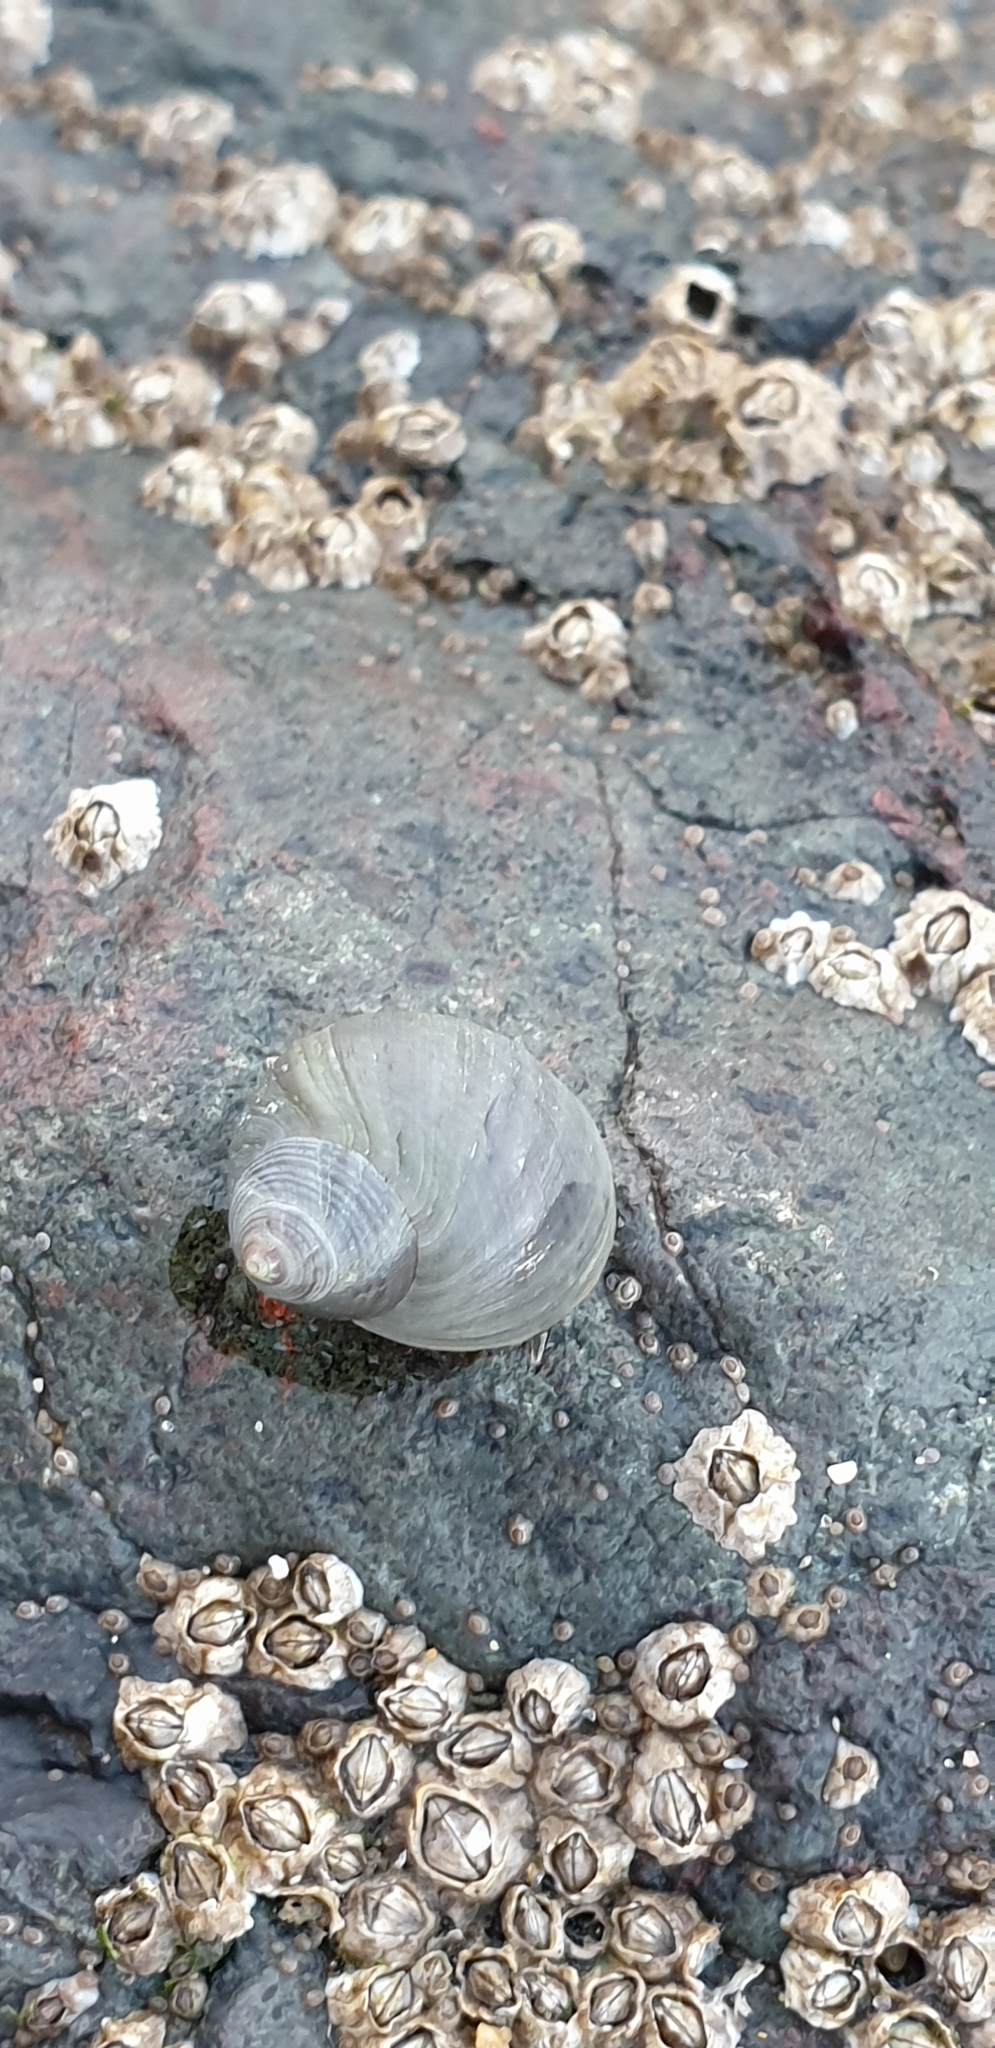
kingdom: Animalia
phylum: Mollusca
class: Gastropoda
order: Littorinimorpha
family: Littorinidae
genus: Littorina
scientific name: Littorina littorea
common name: Common periwinkle
